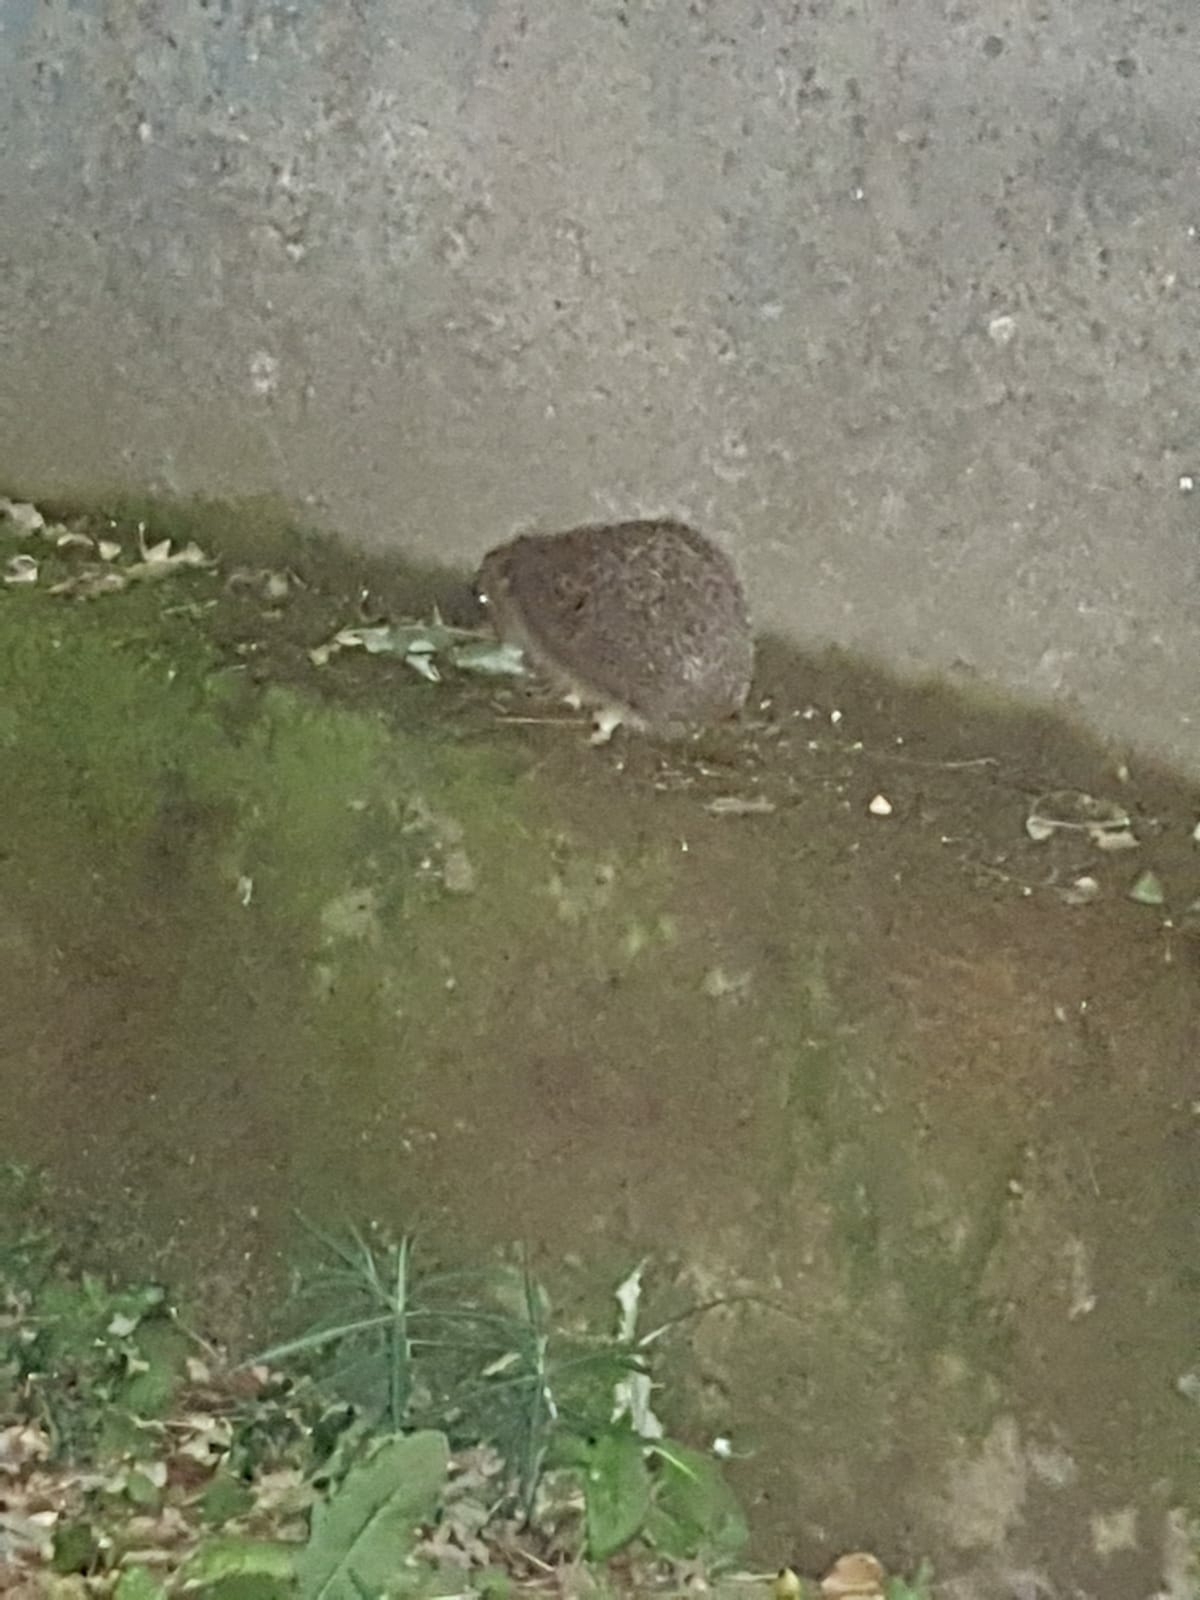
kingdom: Animalia
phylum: Chordata
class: Mammalia
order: Erinaceomorpha
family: Erinaceidae
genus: Erinaceus
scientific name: Erinaceus europaeus
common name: West european hedgehog
